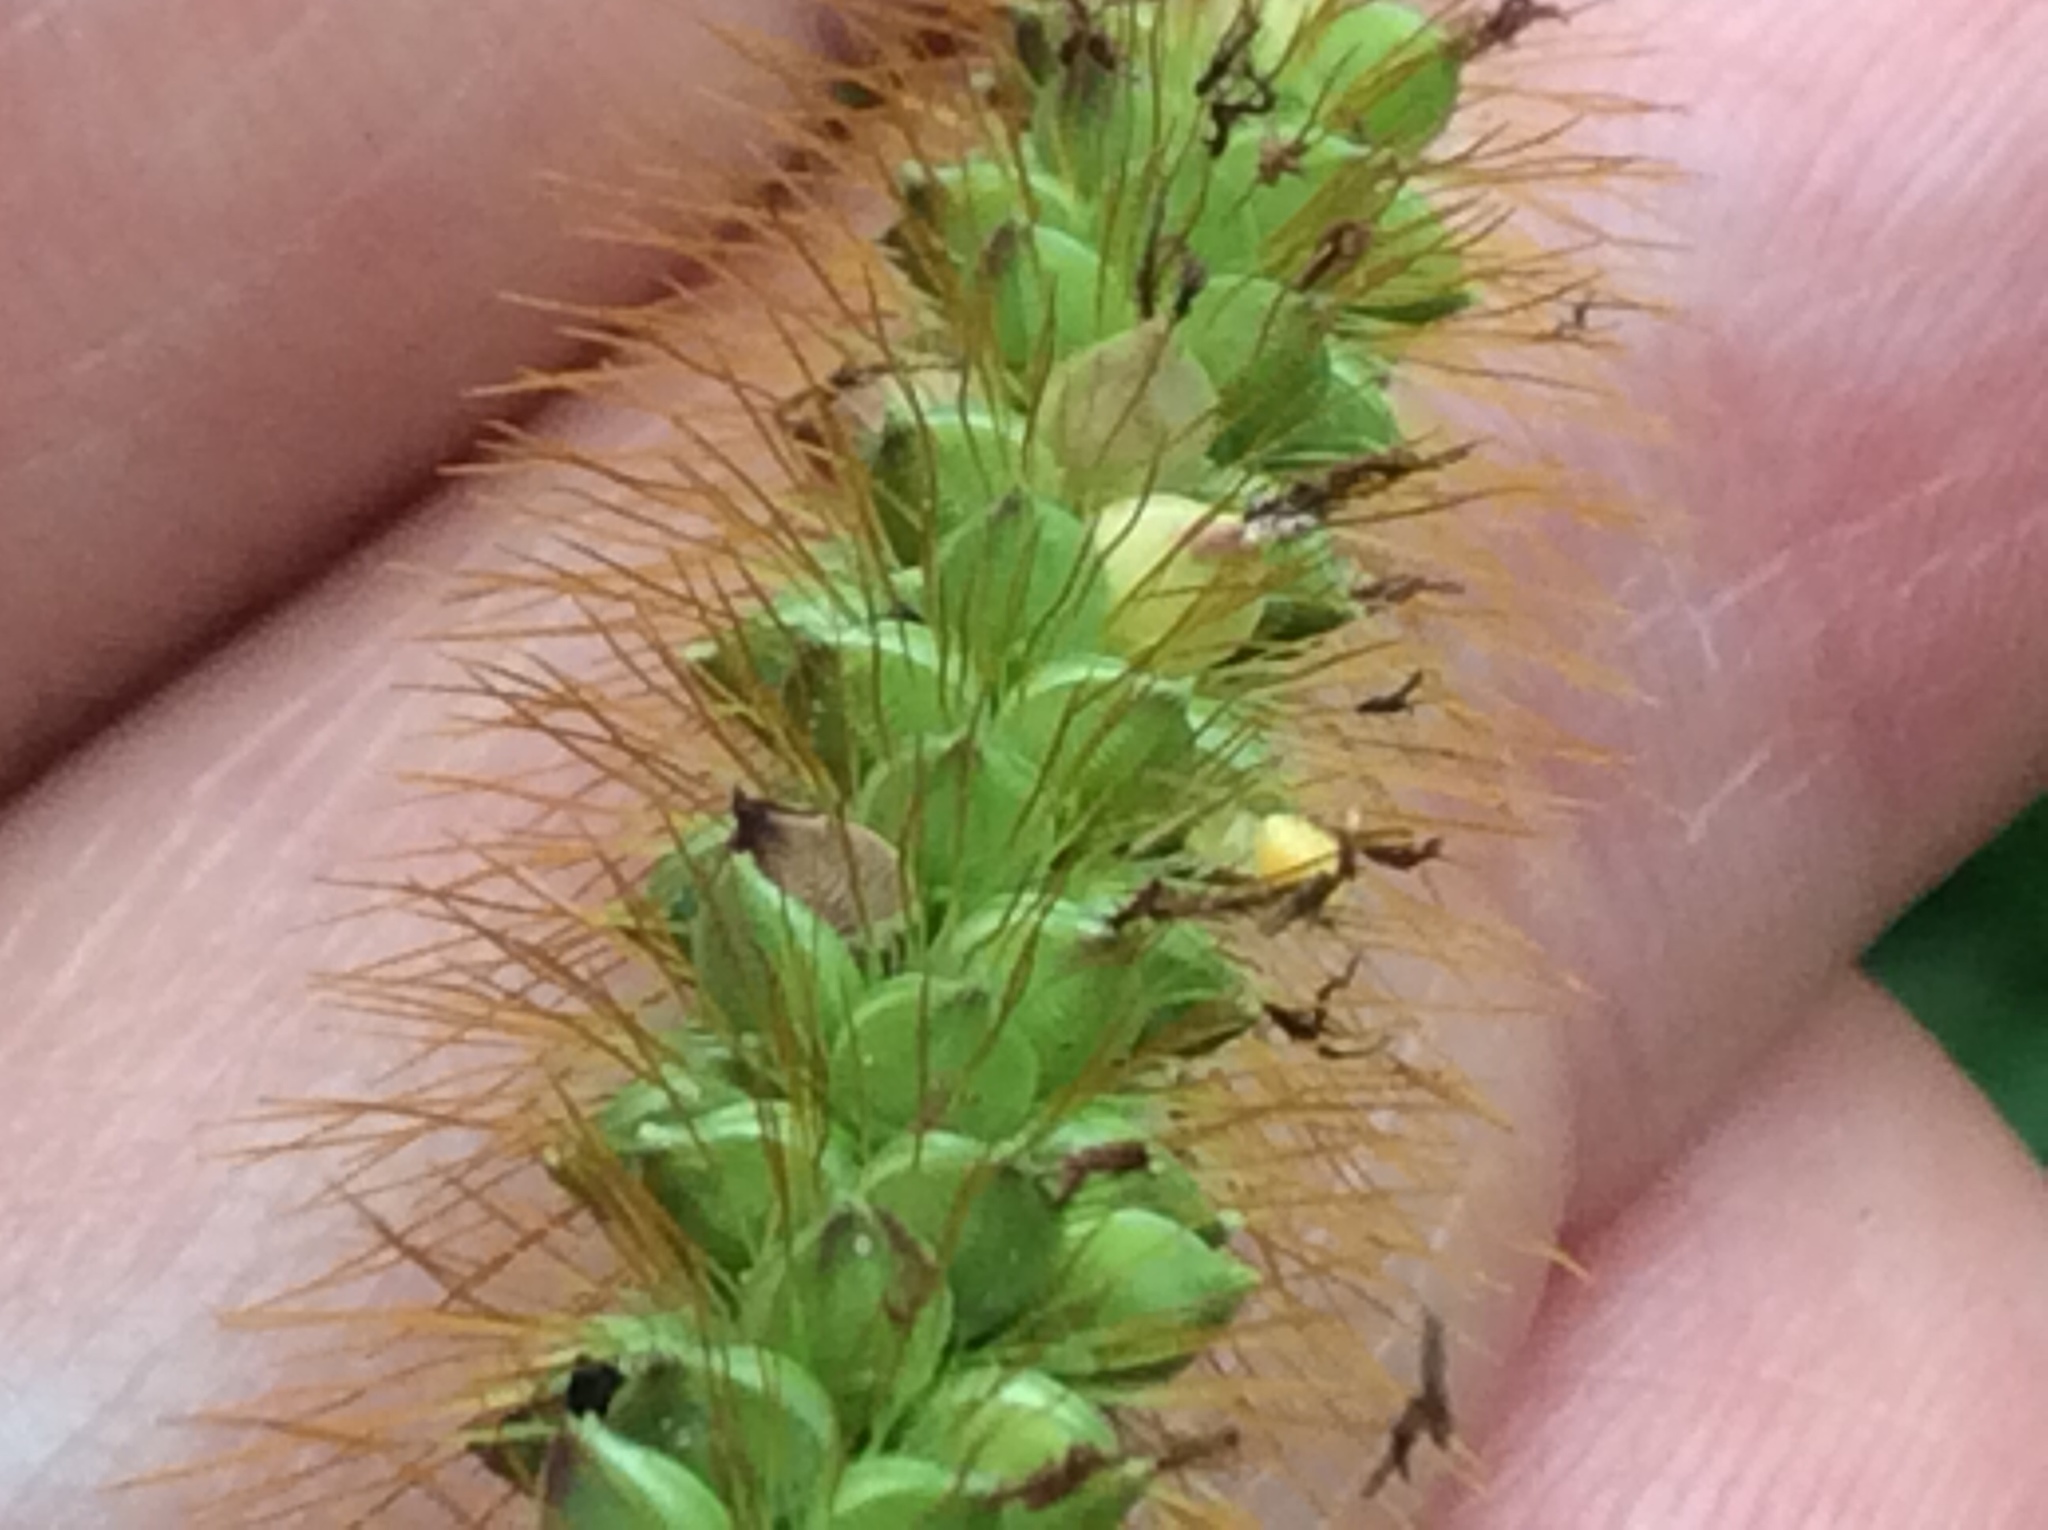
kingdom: Plantae
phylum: Tracheophyta
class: Liliopsida
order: Poales
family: Poaceae
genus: Setaria
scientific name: Setaria pumila
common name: Yellow bristle-grass
